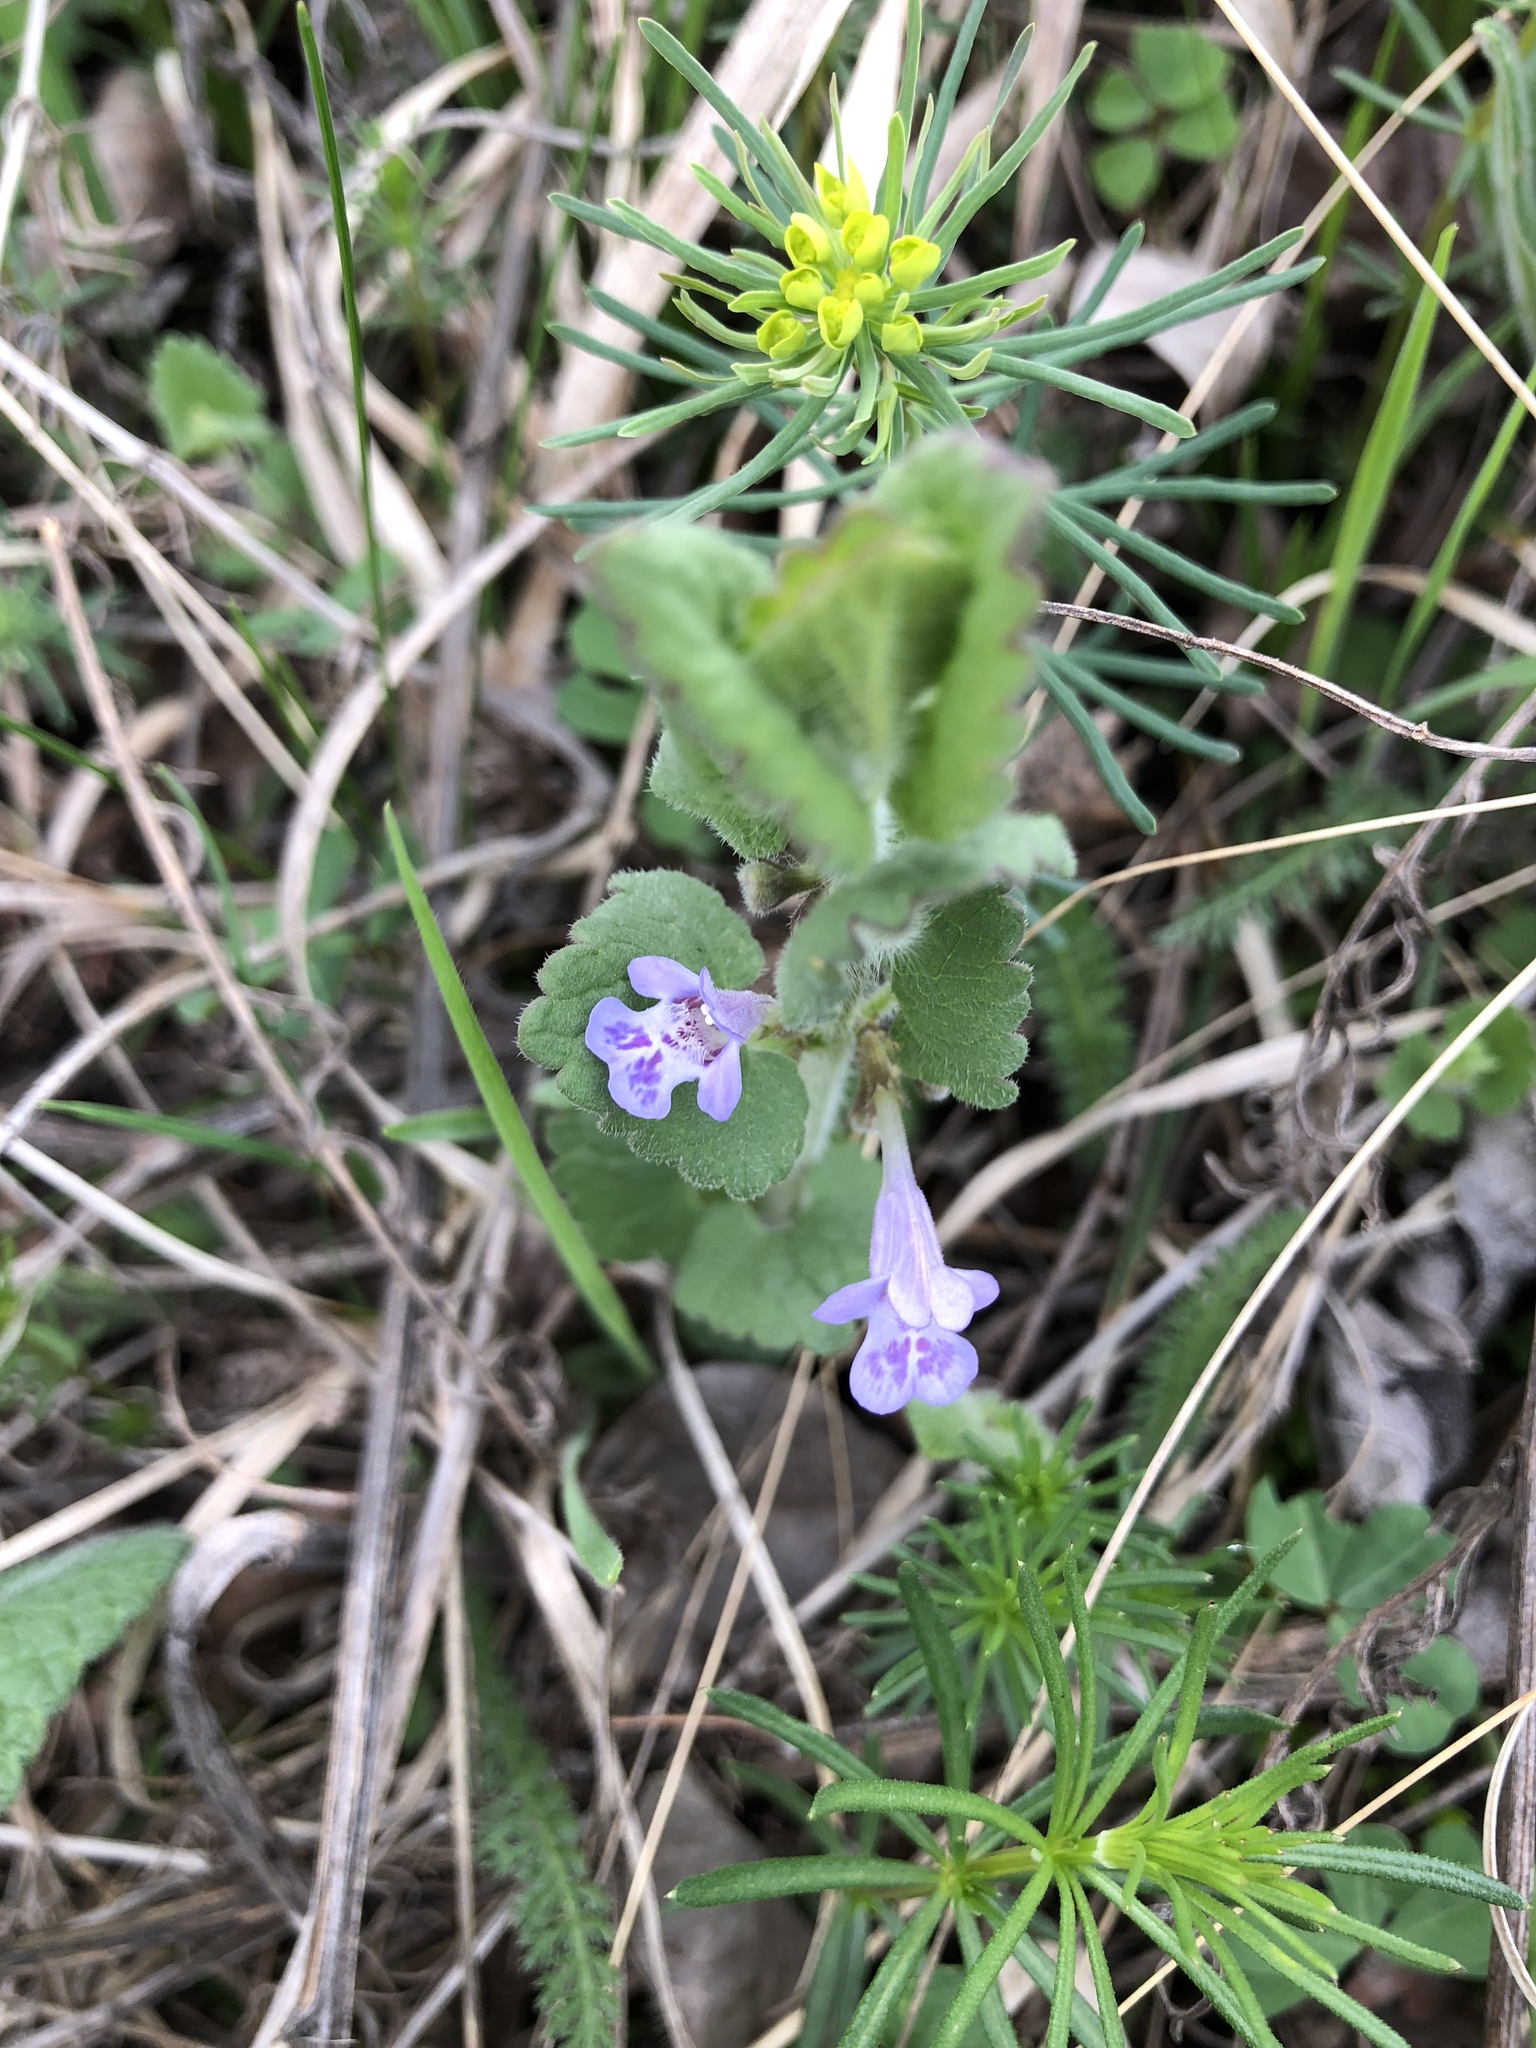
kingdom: Plantae
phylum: Tracheophyta
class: Magnoliopsida
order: Lamiales
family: Lamiaceae
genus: Glechoma
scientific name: Glechoma hederacea
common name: Ground ivy
